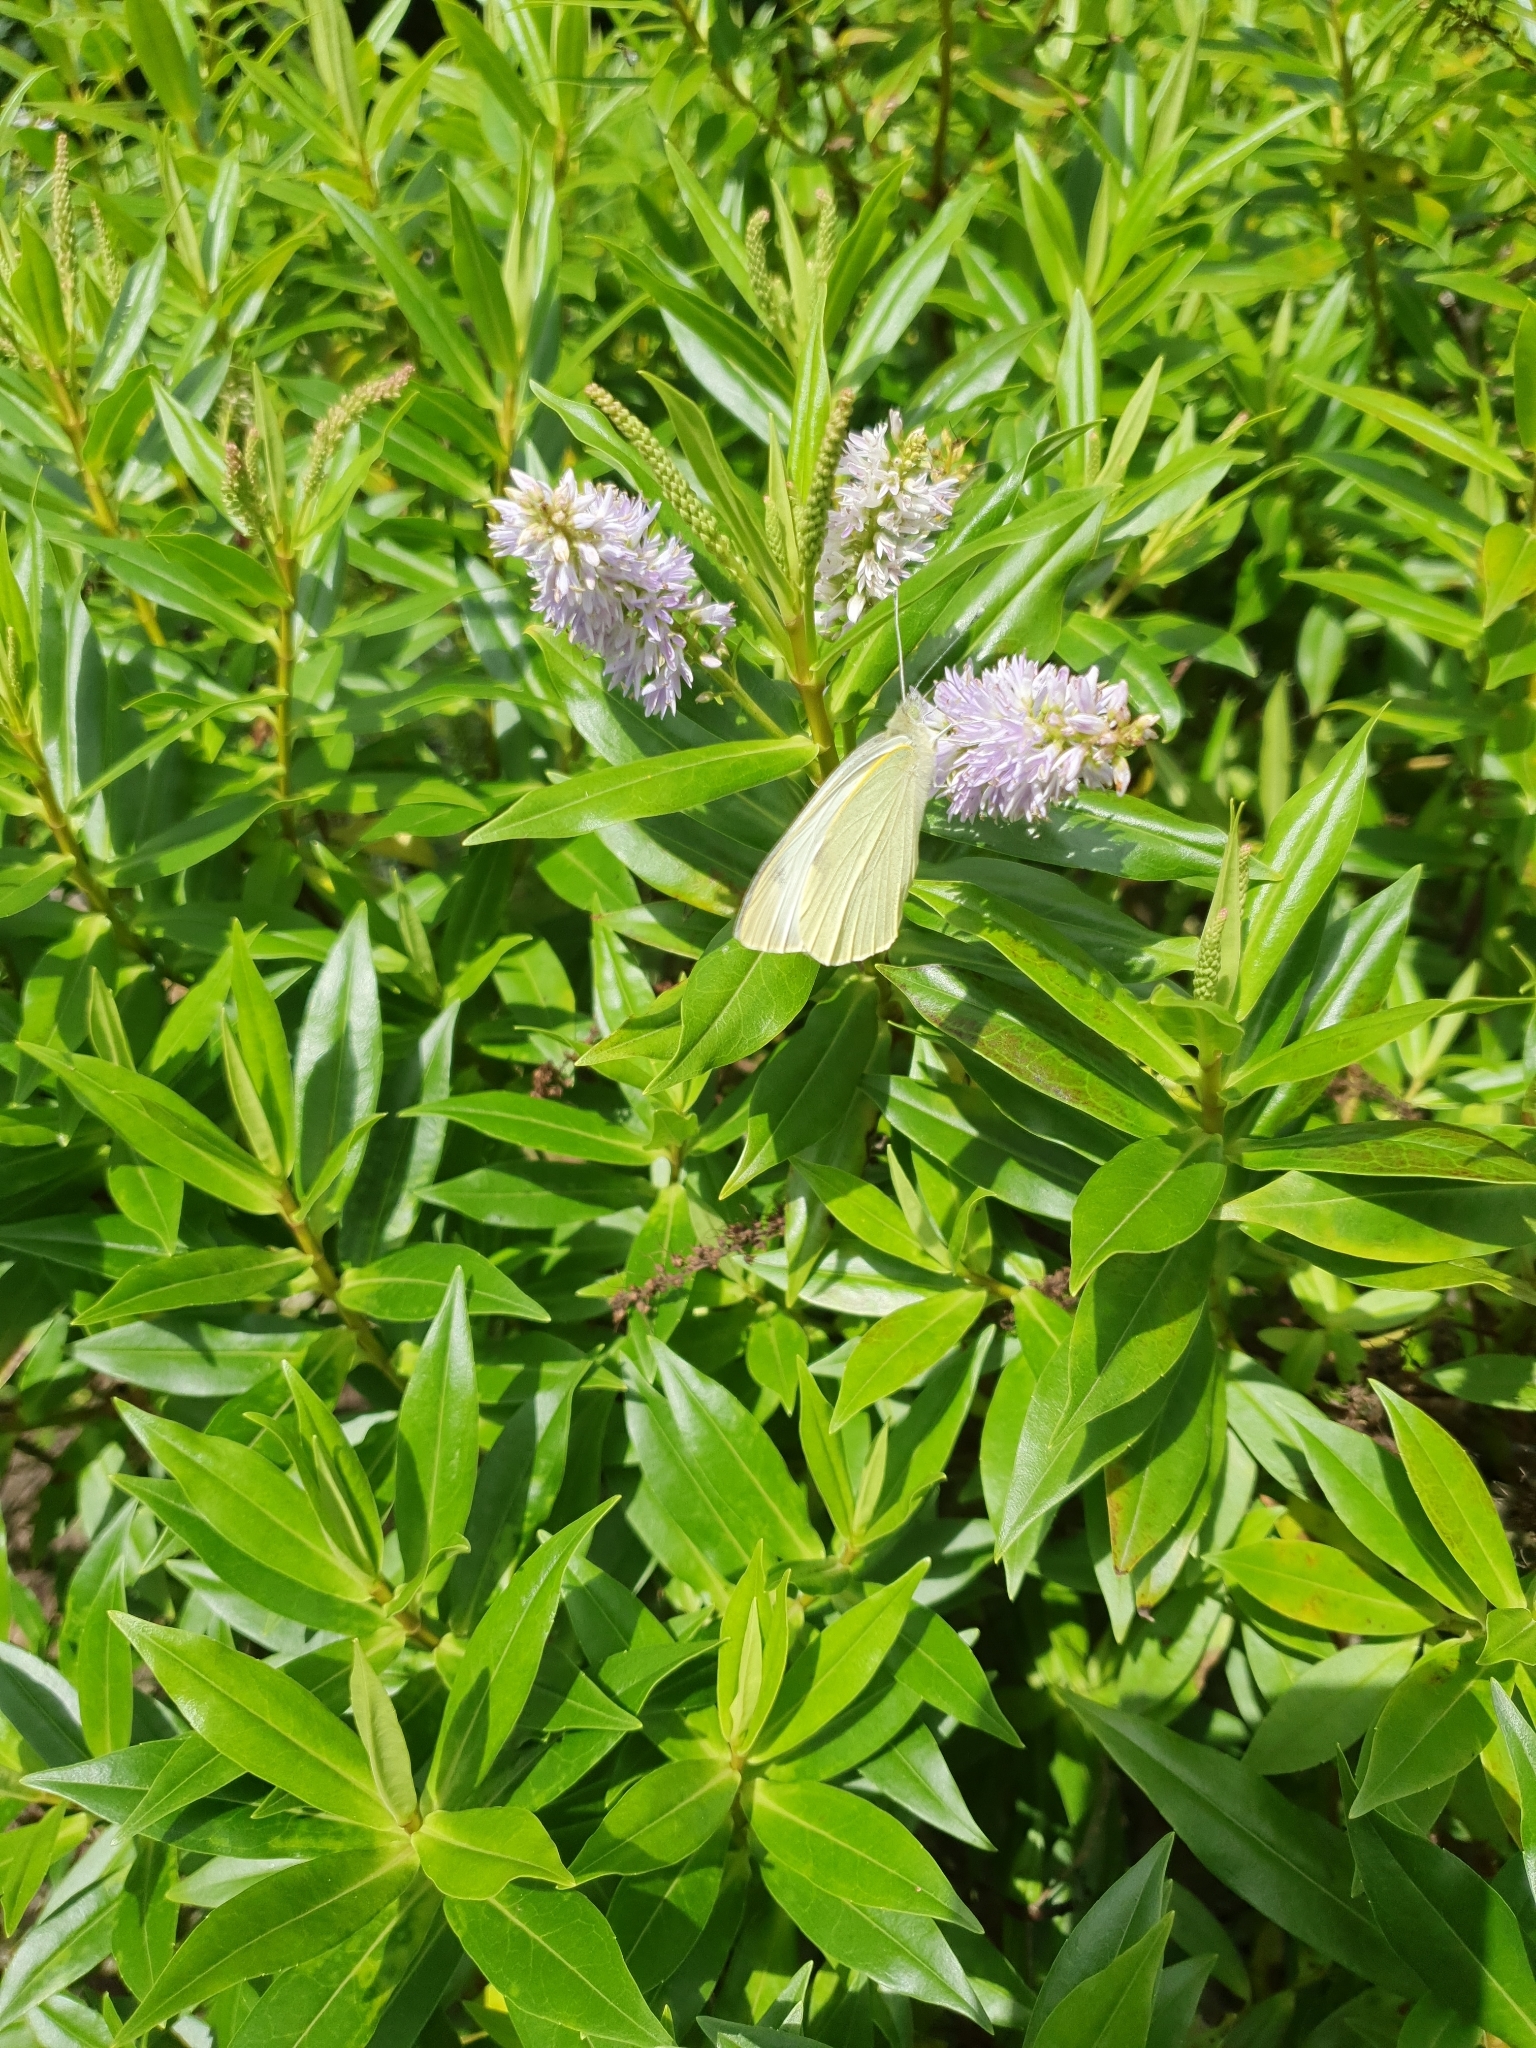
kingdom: Animalia
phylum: Arthropoda
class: Insecta
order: Lepidoptera
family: Pieridae
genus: Pieris
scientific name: Pieris rapae
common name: Small white
